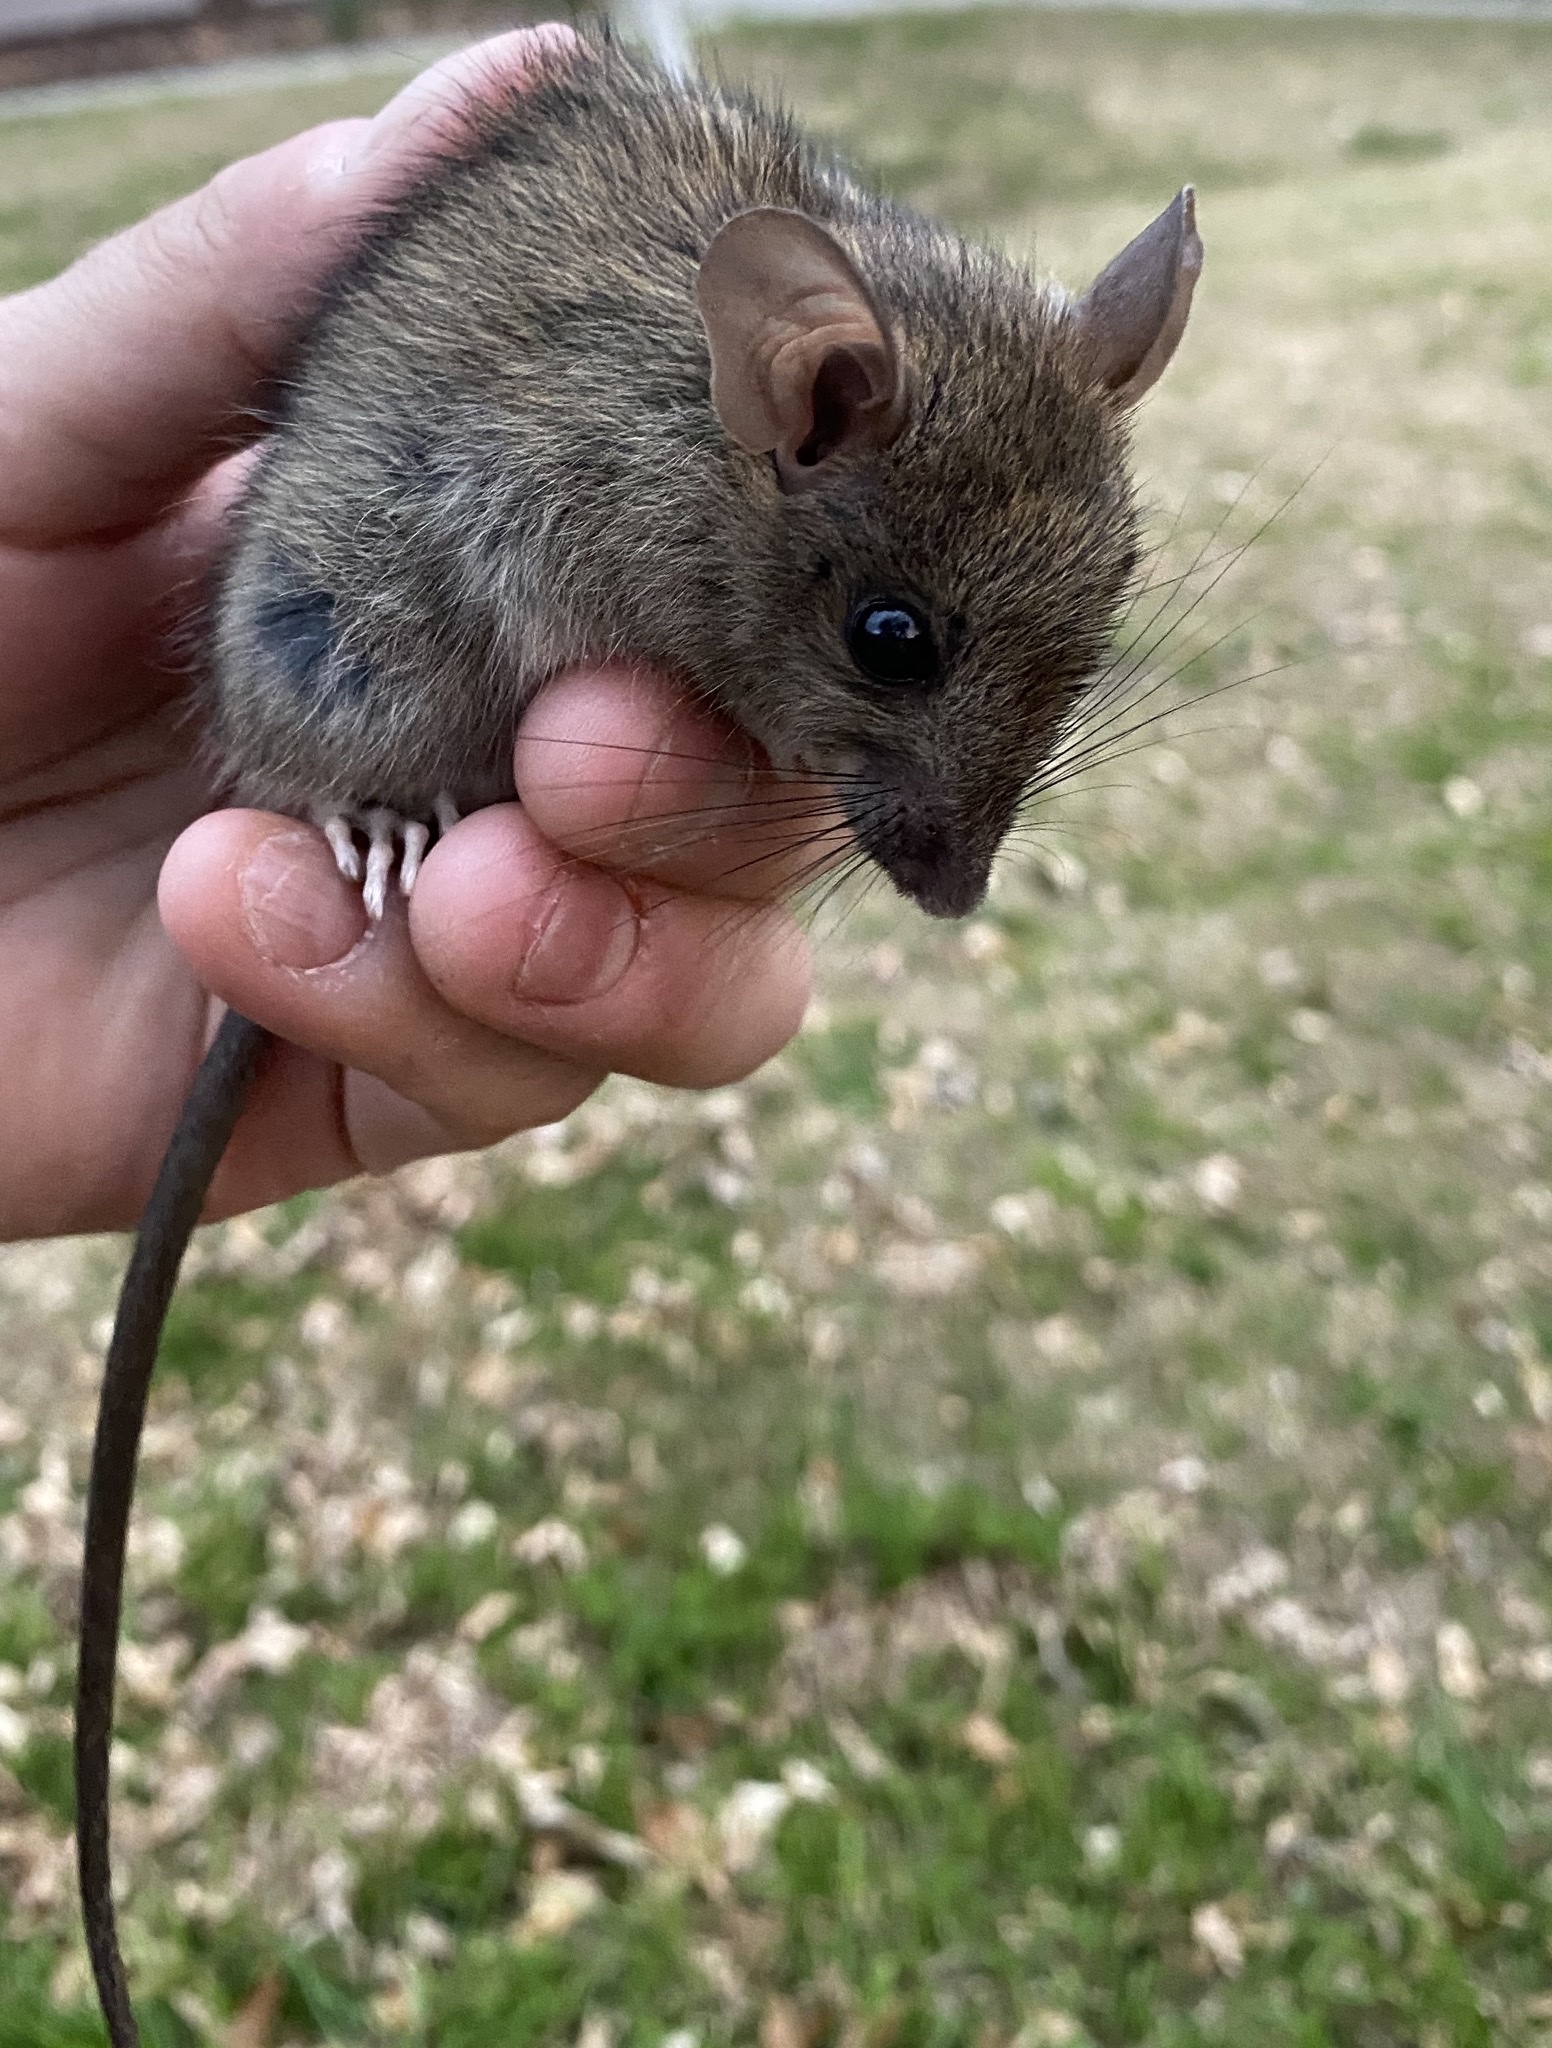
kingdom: Animalia
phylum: Chordata
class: Mammalia
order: Rodentia
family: Muridae
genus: Rattus
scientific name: Rattus rattus
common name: Black rat
